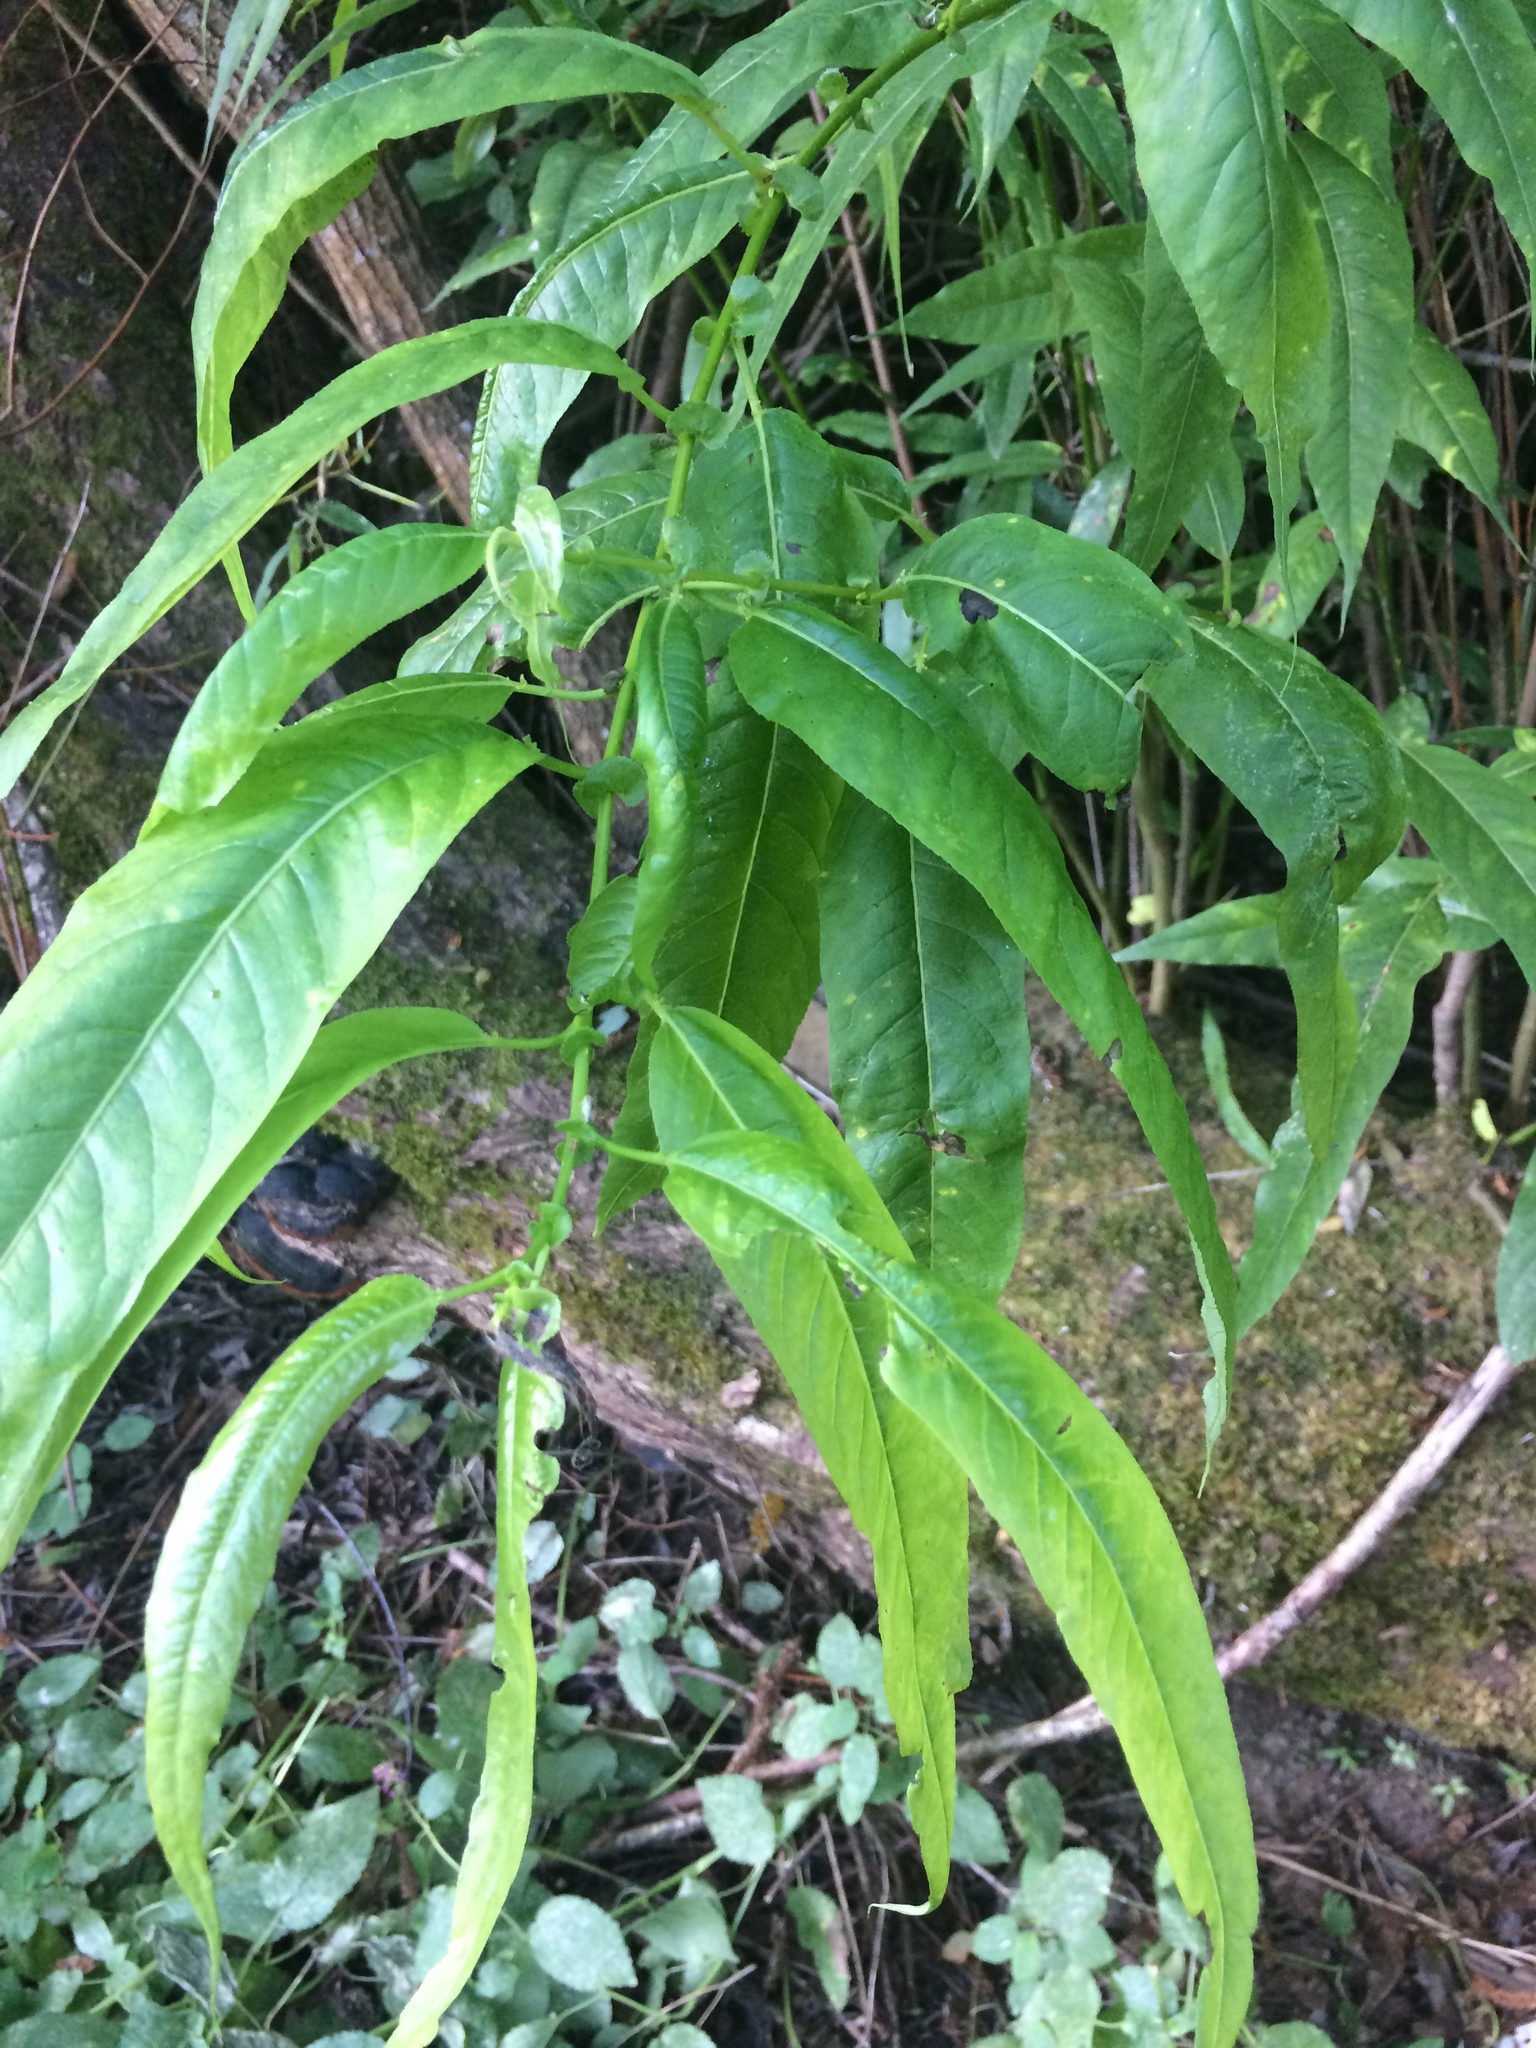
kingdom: Plantae
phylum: Tracheophyta
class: Magnoliopsida
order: Malpighiales
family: Salicaceae
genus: Salix
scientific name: Salix lucida
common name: Shining willow
